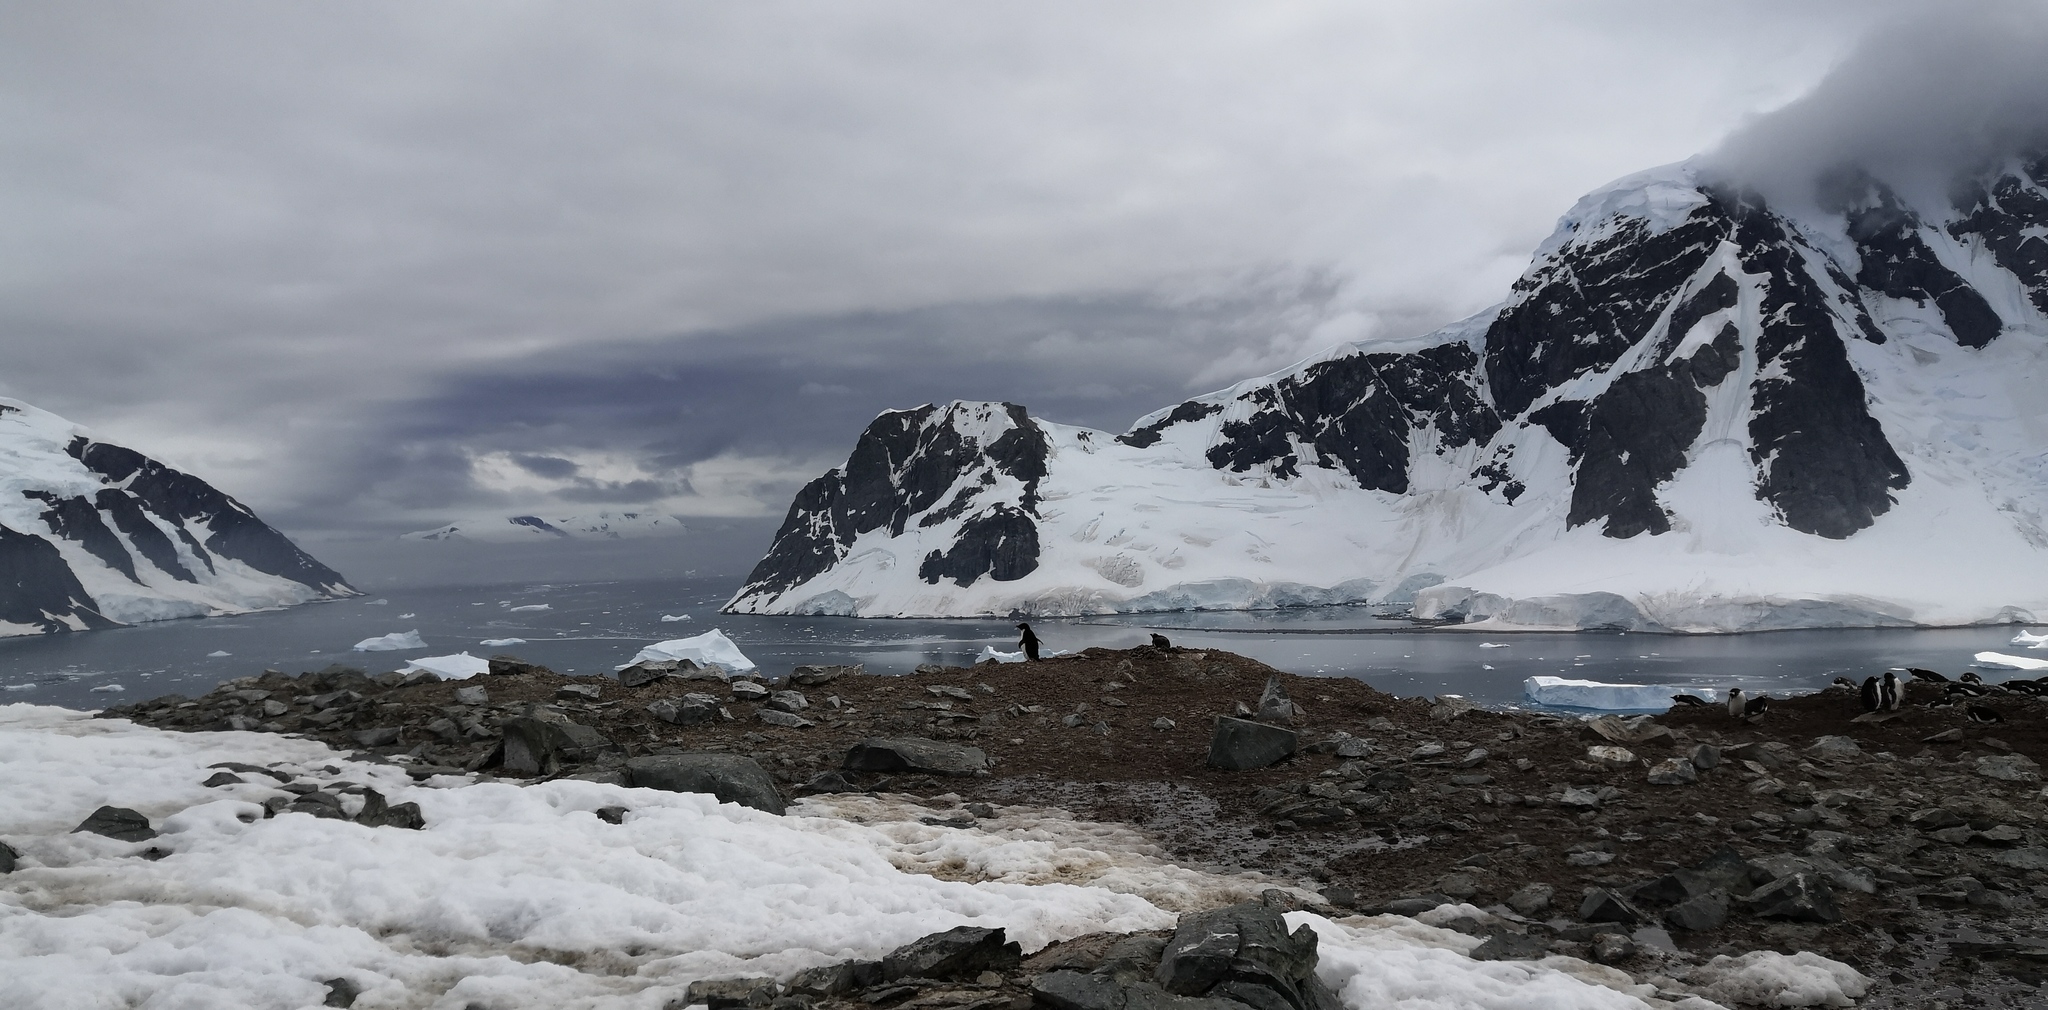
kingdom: Animalia
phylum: Chordata
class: Aves
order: Sphenisciformes
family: Spheniscidae
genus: Pygoscelis
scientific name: Pygoscelis adeliae
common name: Adelie penguin
